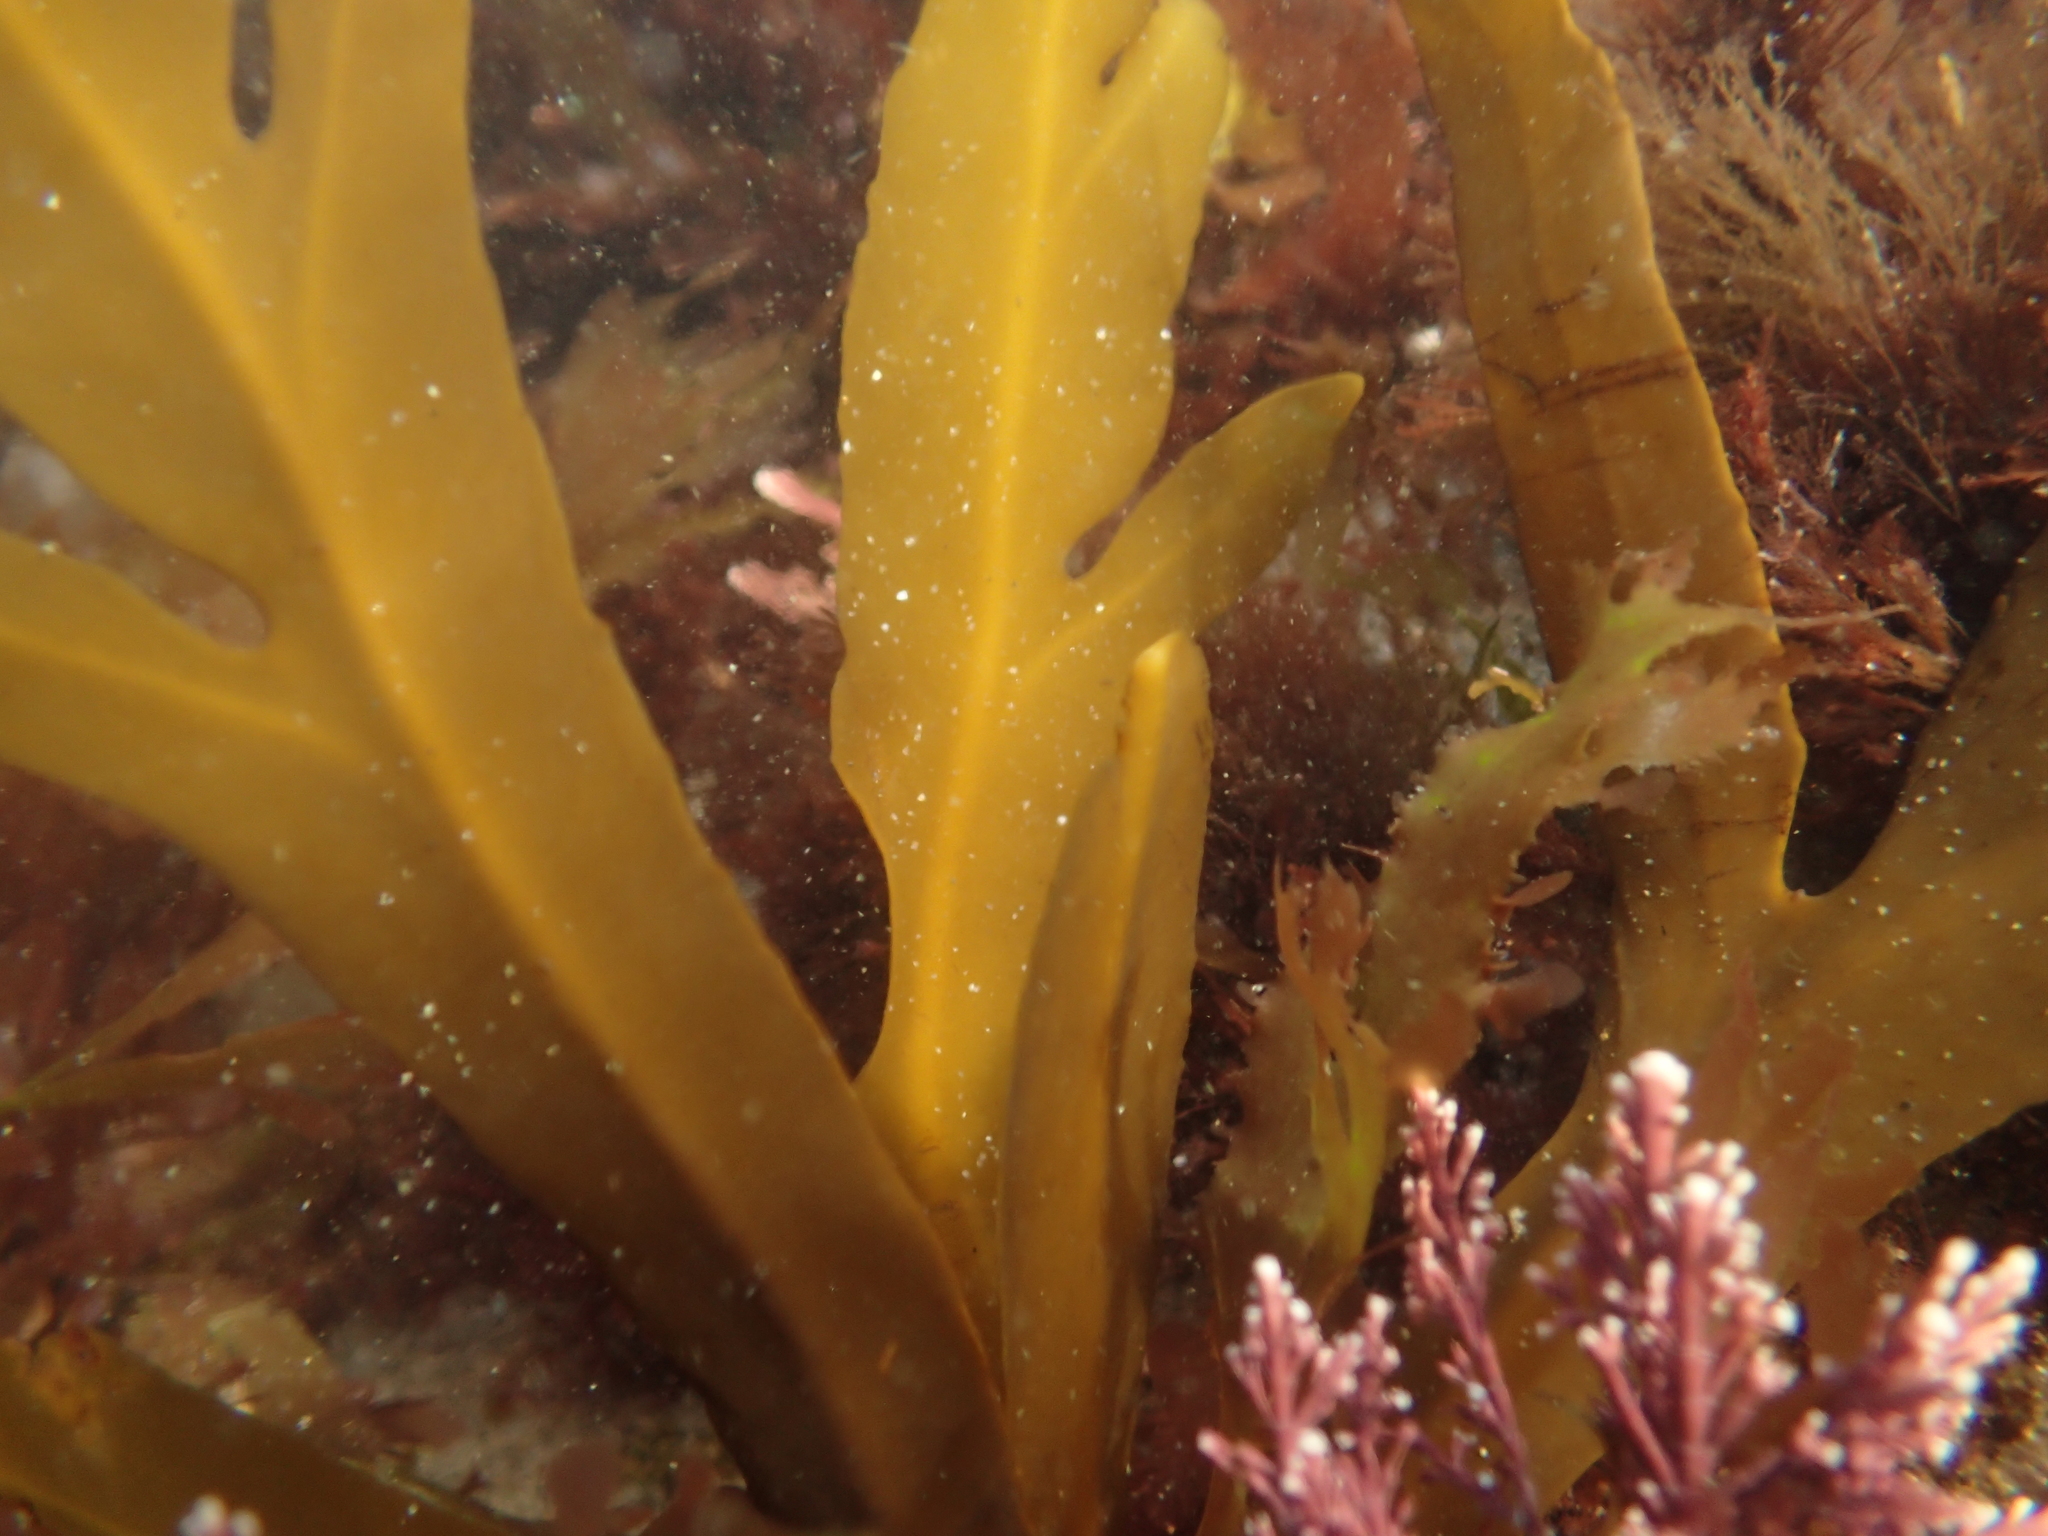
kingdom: Chromista
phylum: Ochrophyta
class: Phaeophyceae
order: Fucales
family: Sargassaceae
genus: Stephanocystis
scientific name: Stephanocystis
